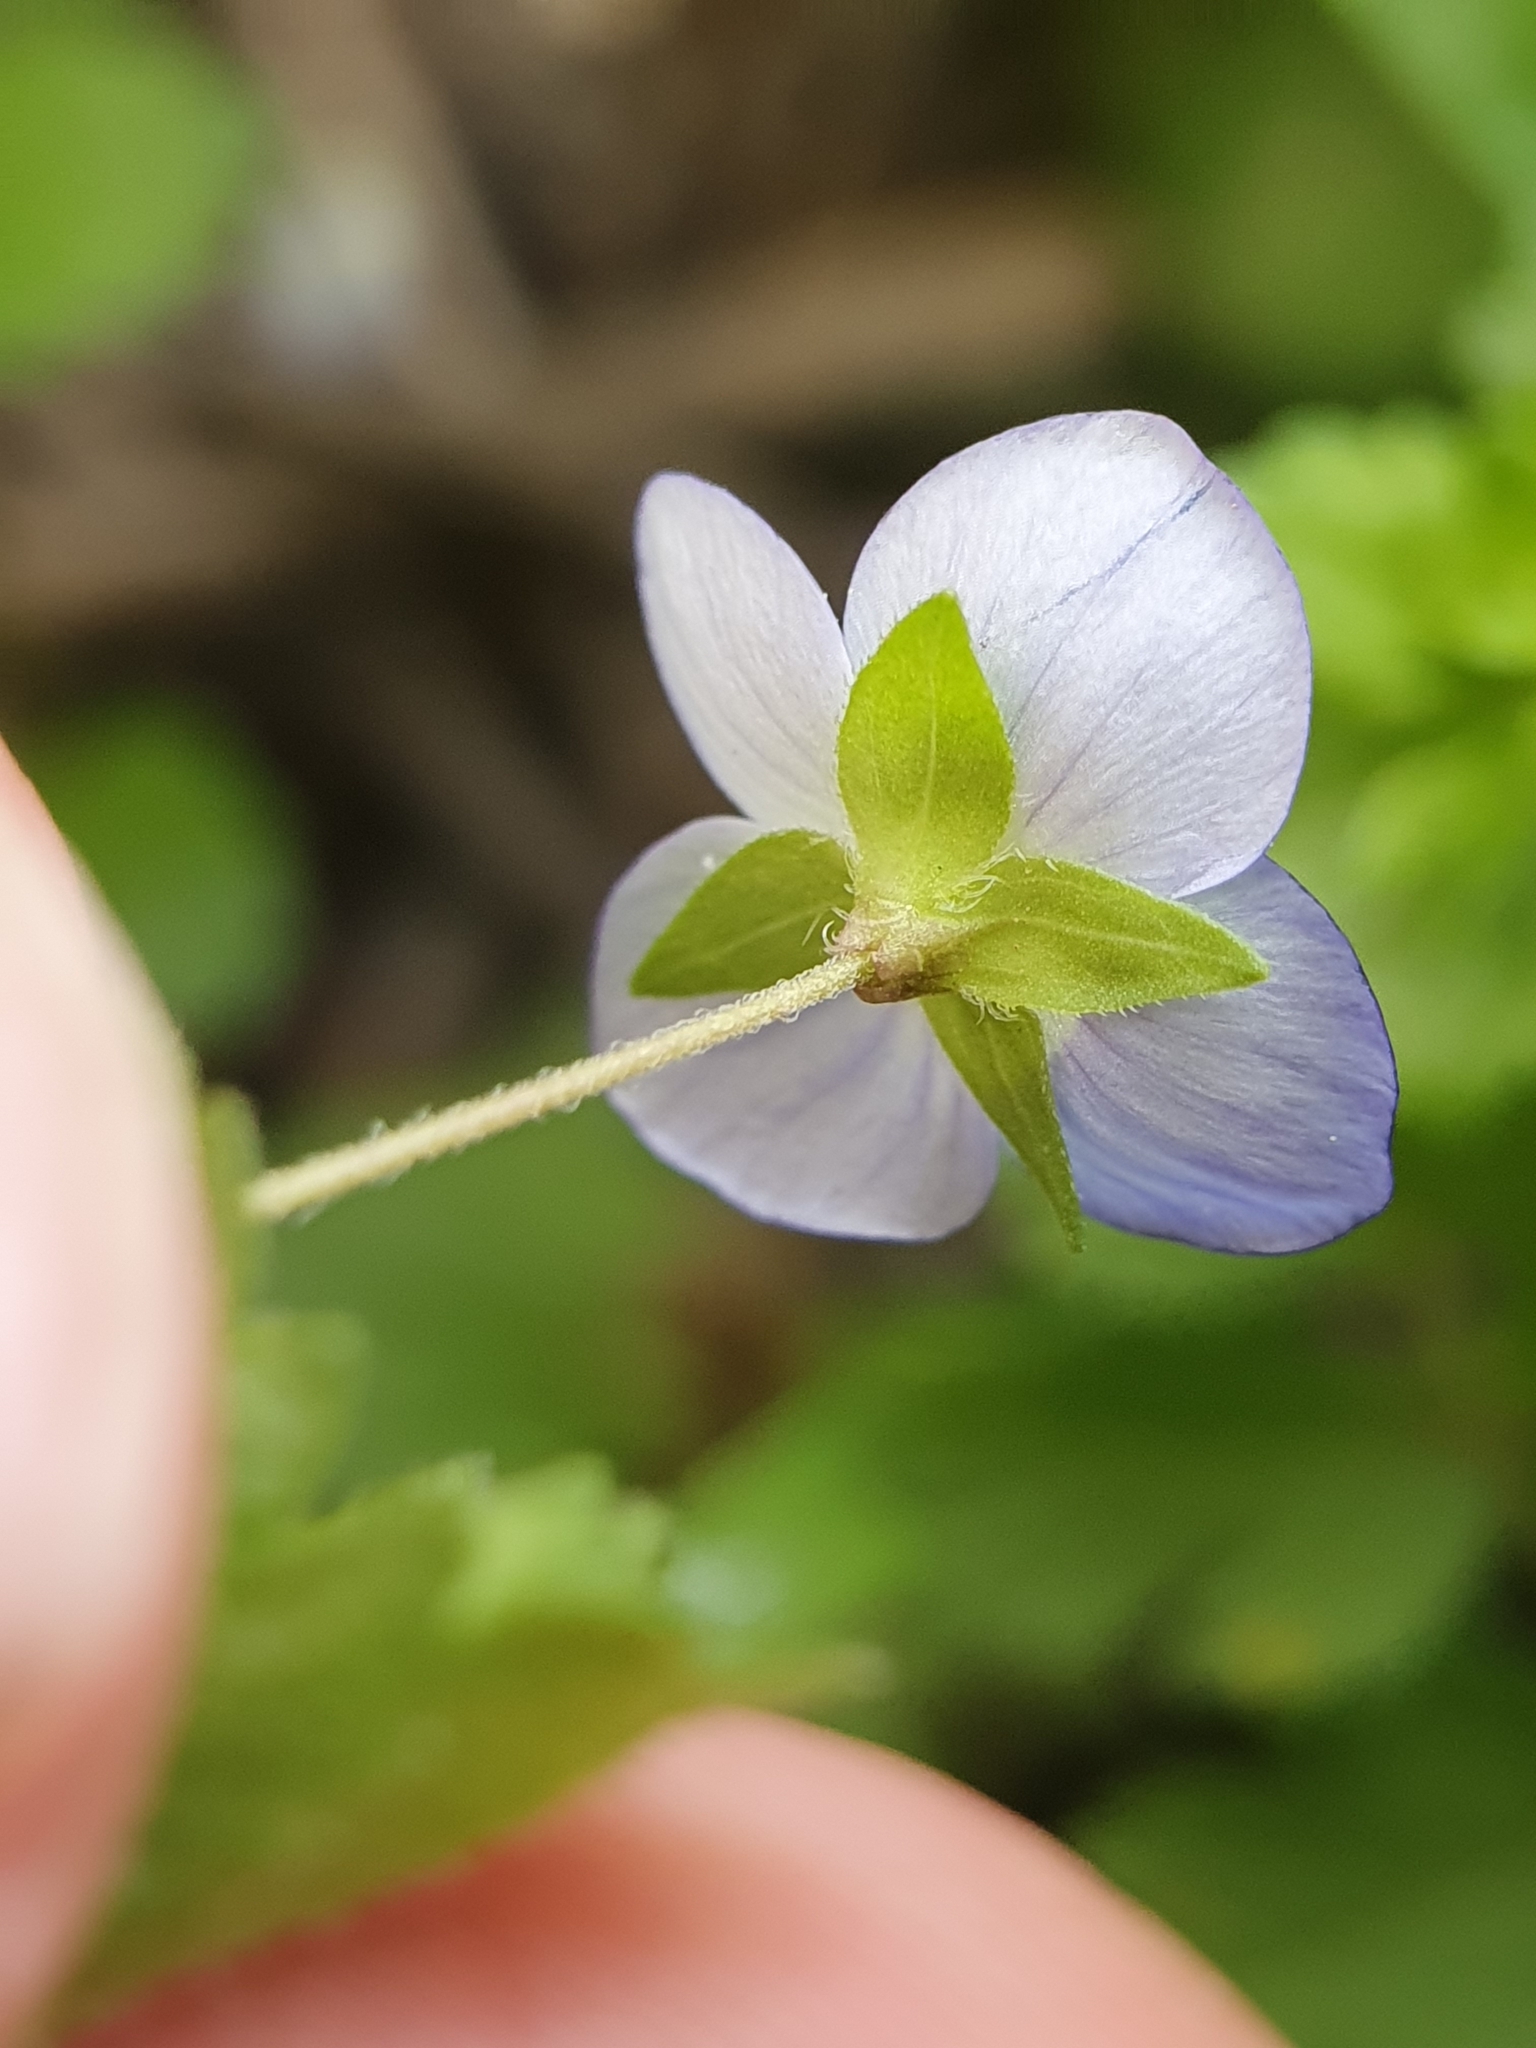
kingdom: Plantae
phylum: Tracheophyta
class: Magnoliopsida
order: Lamiales
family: Plantaginaceae
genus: Veronica
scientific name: Veronica persica
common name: Common field-speedwell
